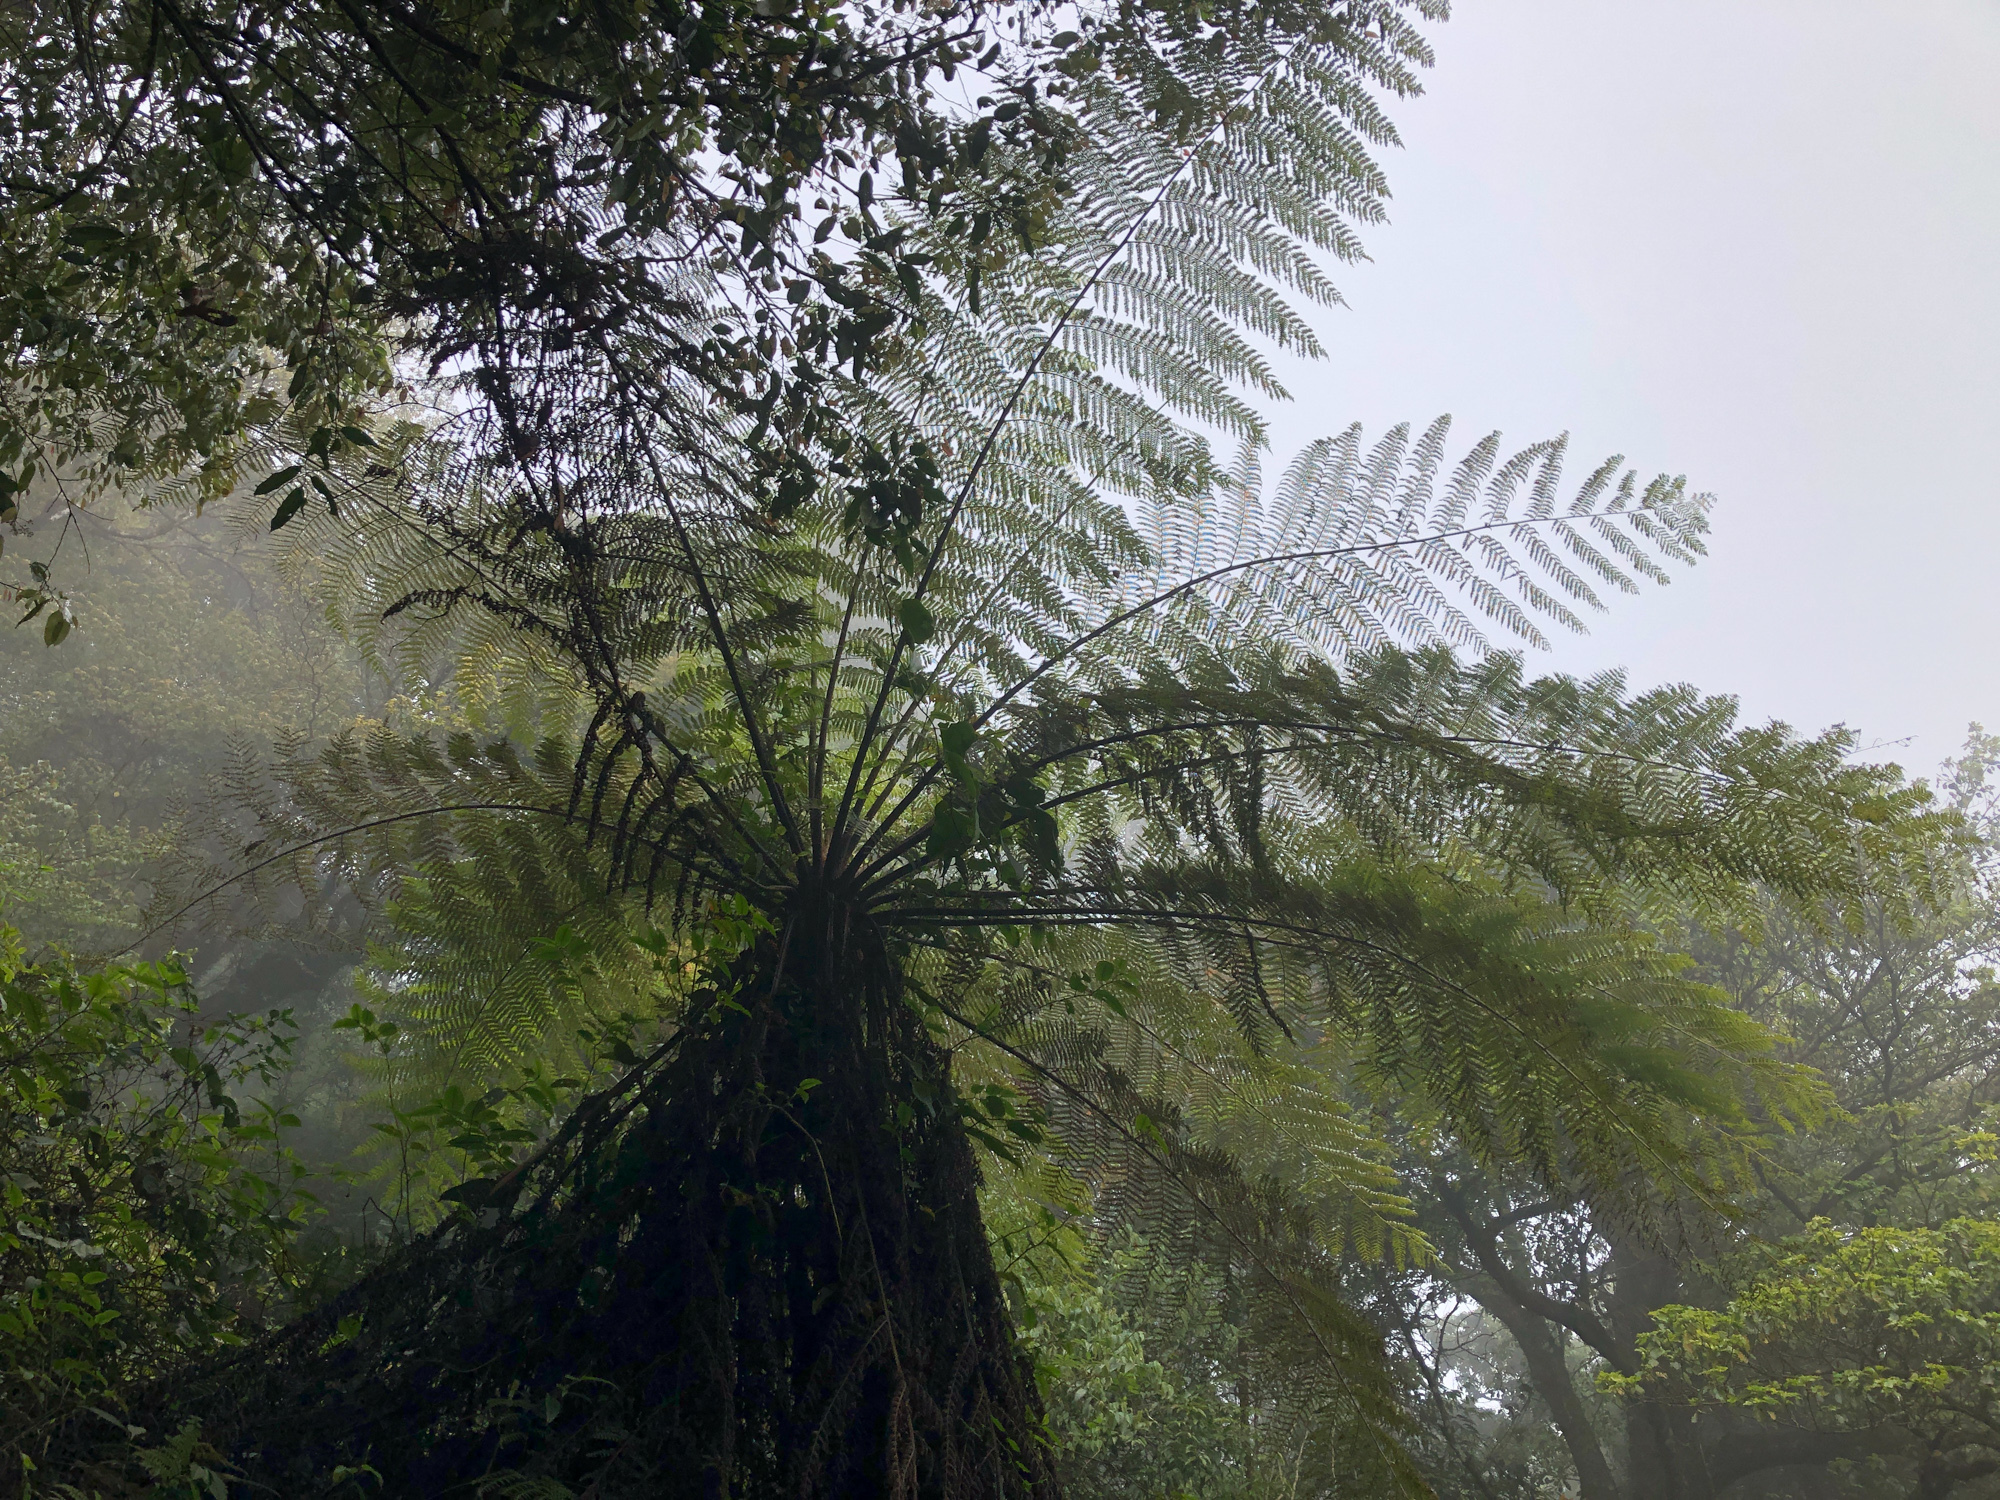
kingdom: Plantae
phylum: Tracheophyta
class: Polypodiopsida
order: Cyatheales
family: Cyatheaceae
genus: Alsophila
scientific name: Alsophila spinulosa
